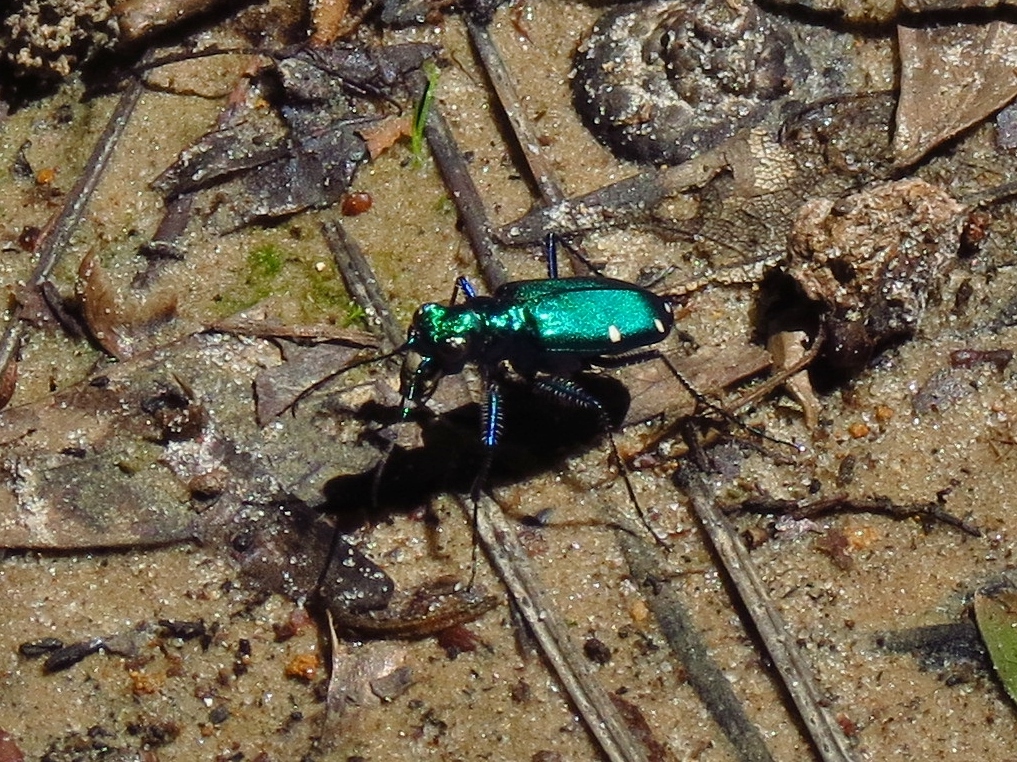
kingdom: Animalia
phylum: Arthropoda
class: Insecta
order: Coleoptera
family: Carabidae
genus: Cicindela
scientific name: Cicindela sexguttata
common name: Six-spotted tiger beetle
